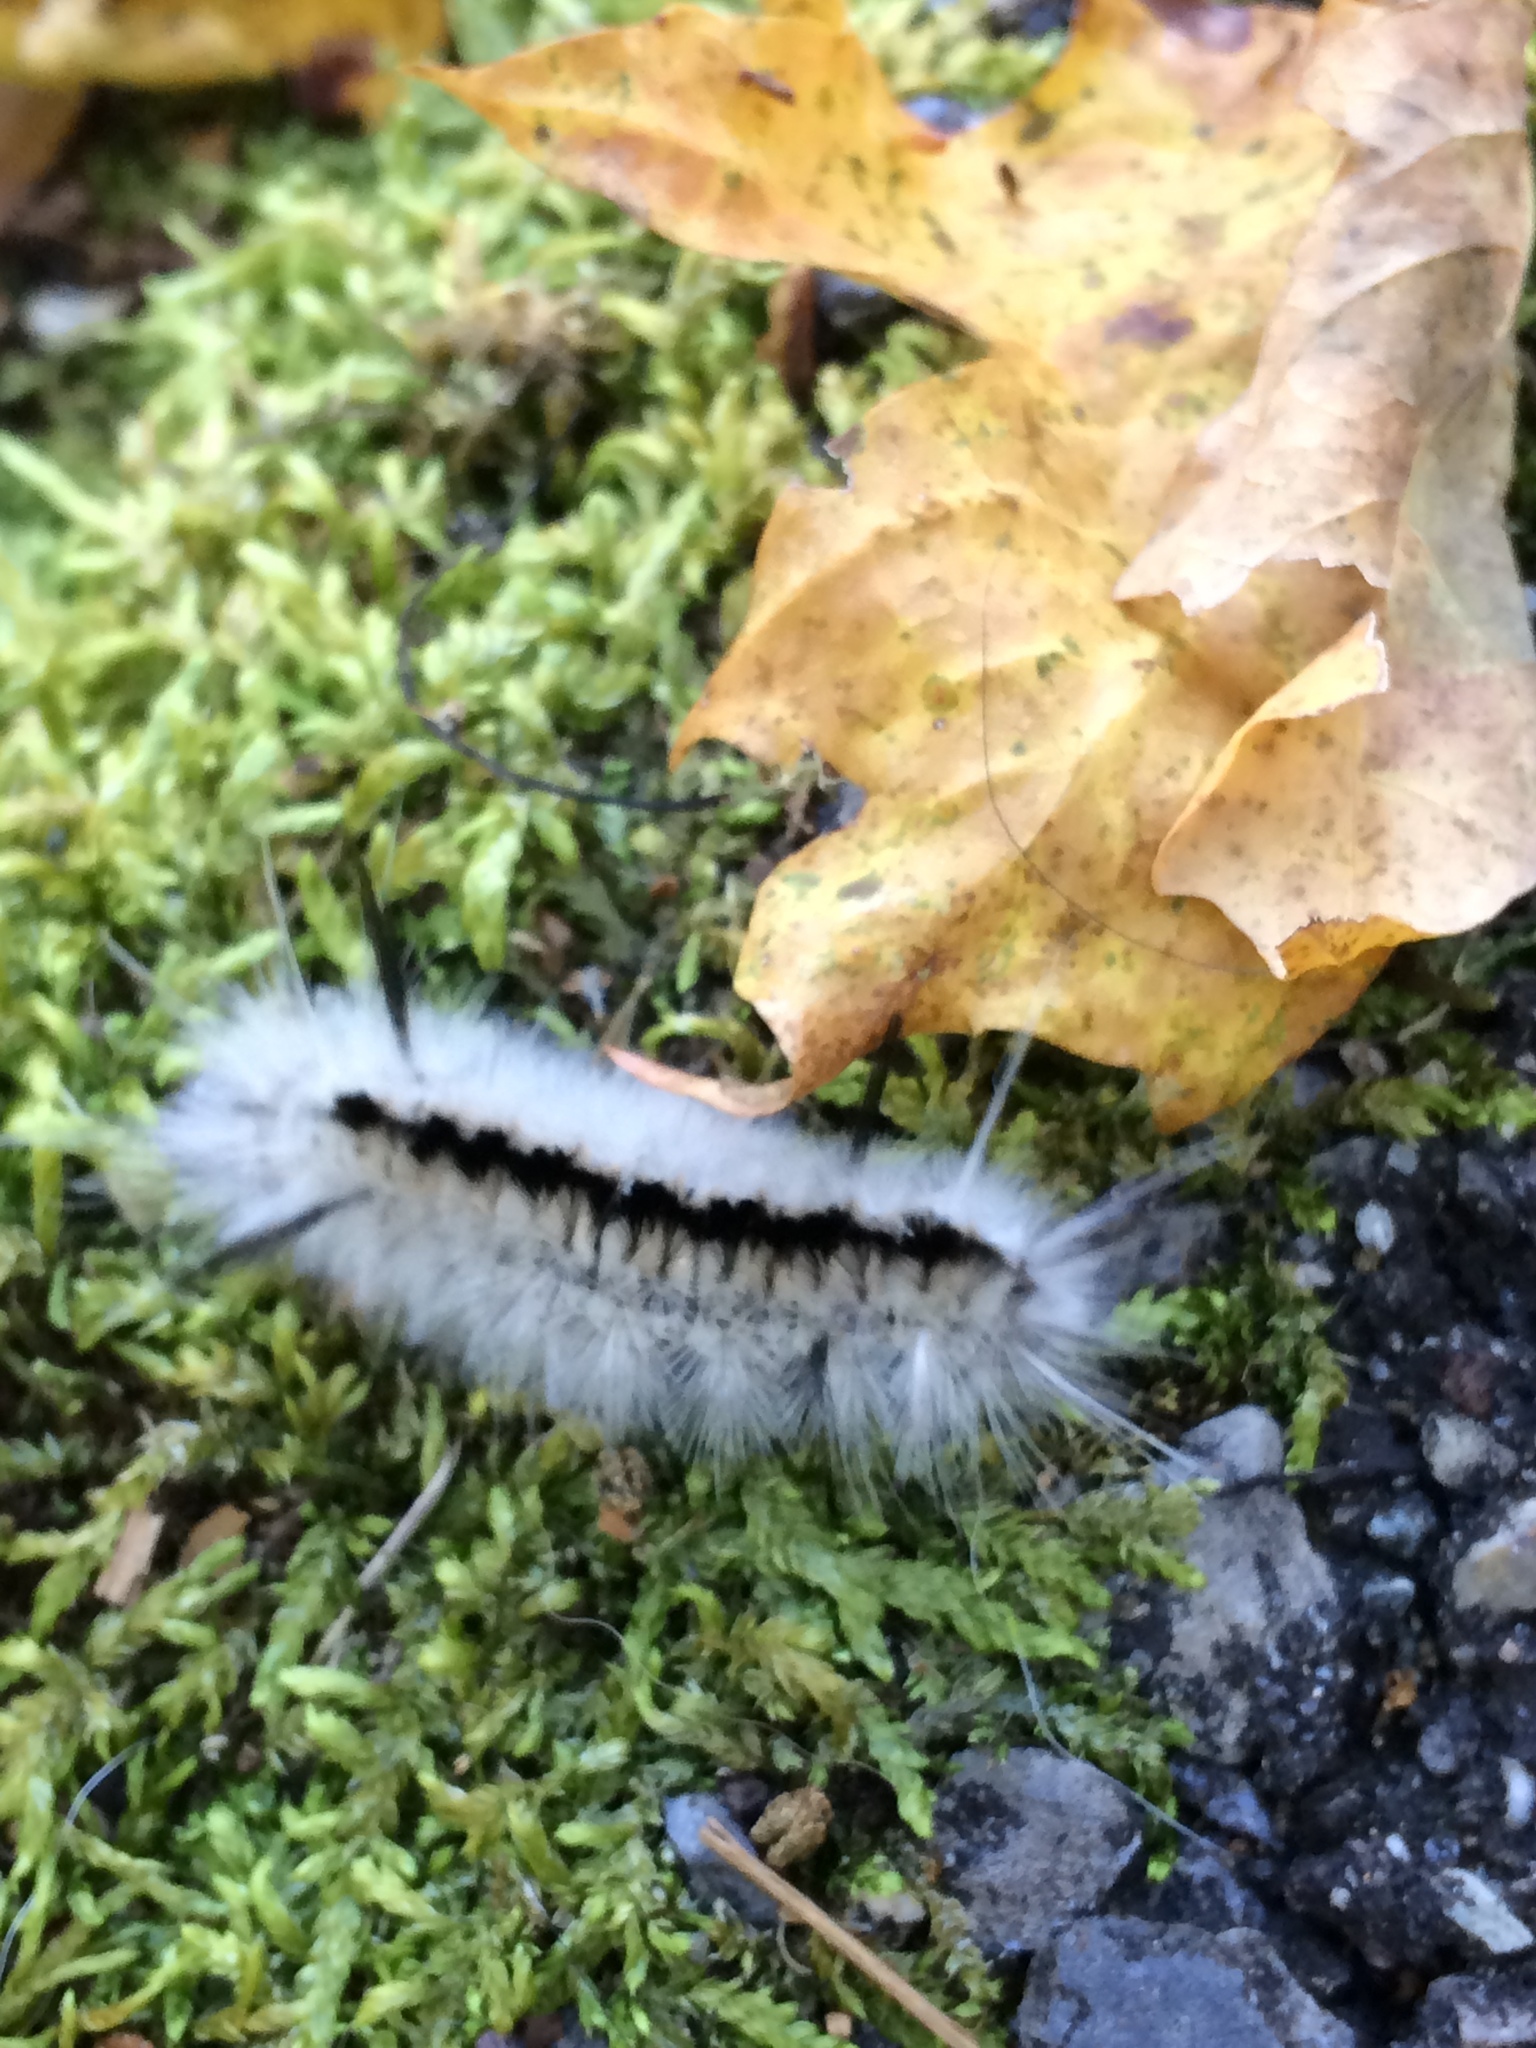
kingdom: Animalia
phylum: Arthropoda
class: Insecta
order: Lepidoptera
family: Erebidae
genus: Lophocampa
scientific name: Lophocampa caryae
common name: Hickory tussock moth
